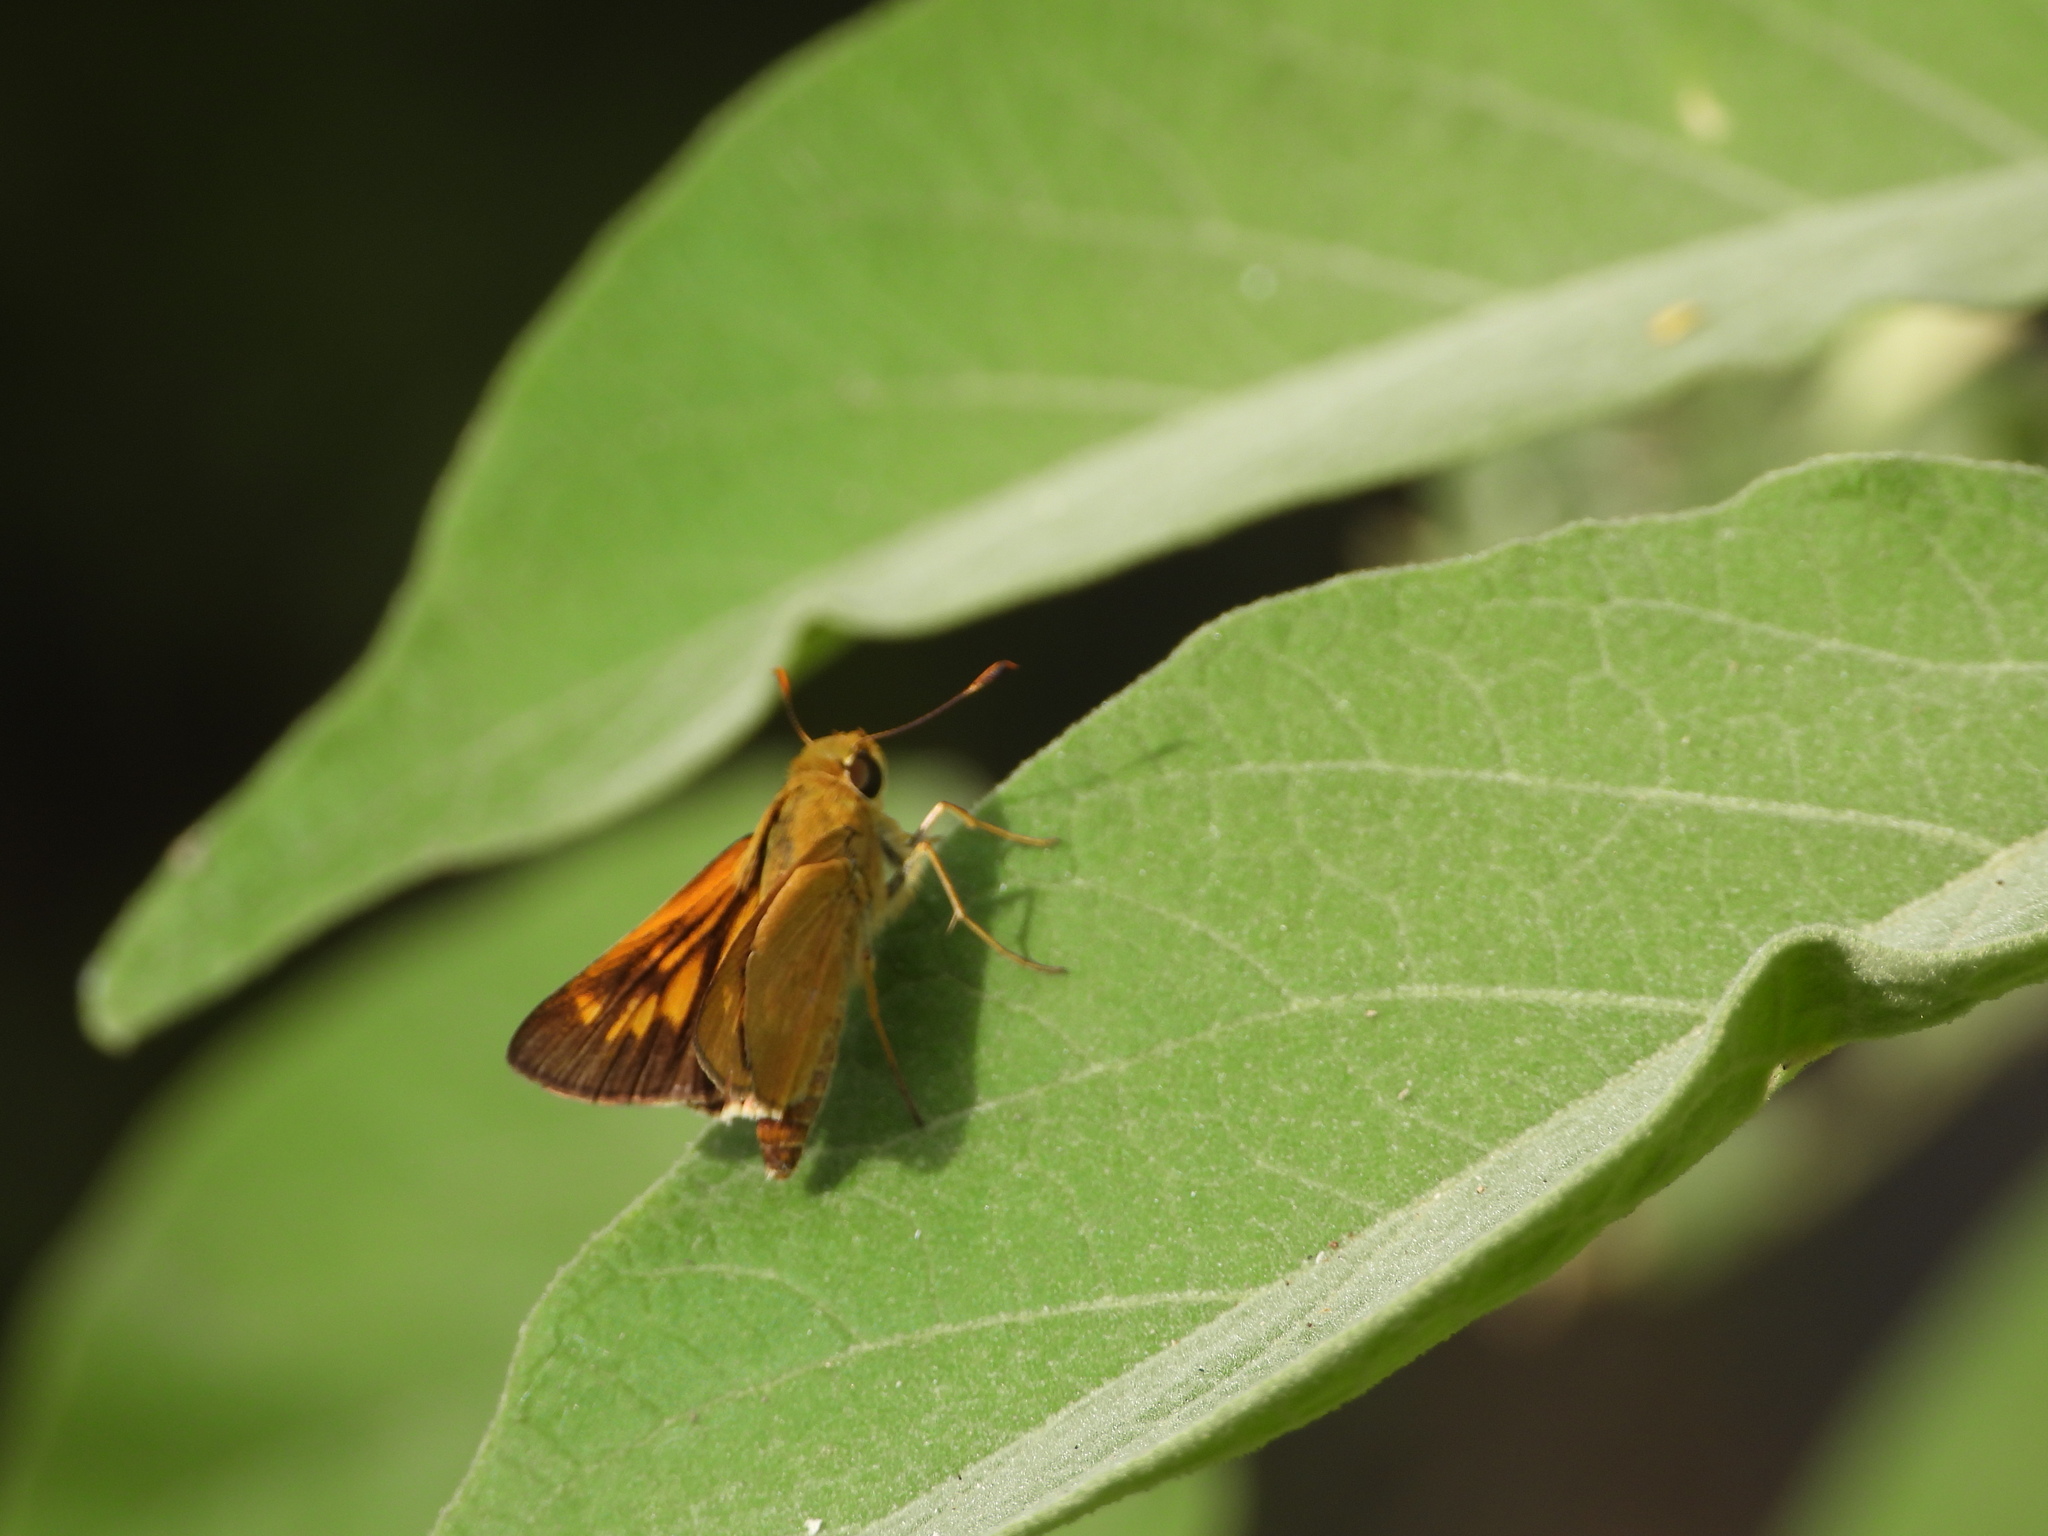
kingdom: Animalia
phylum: Arthropoda
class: Insecta
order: Lepidoptera
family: Hesperiidae
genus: Mellana
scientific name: Mellana eulogius
